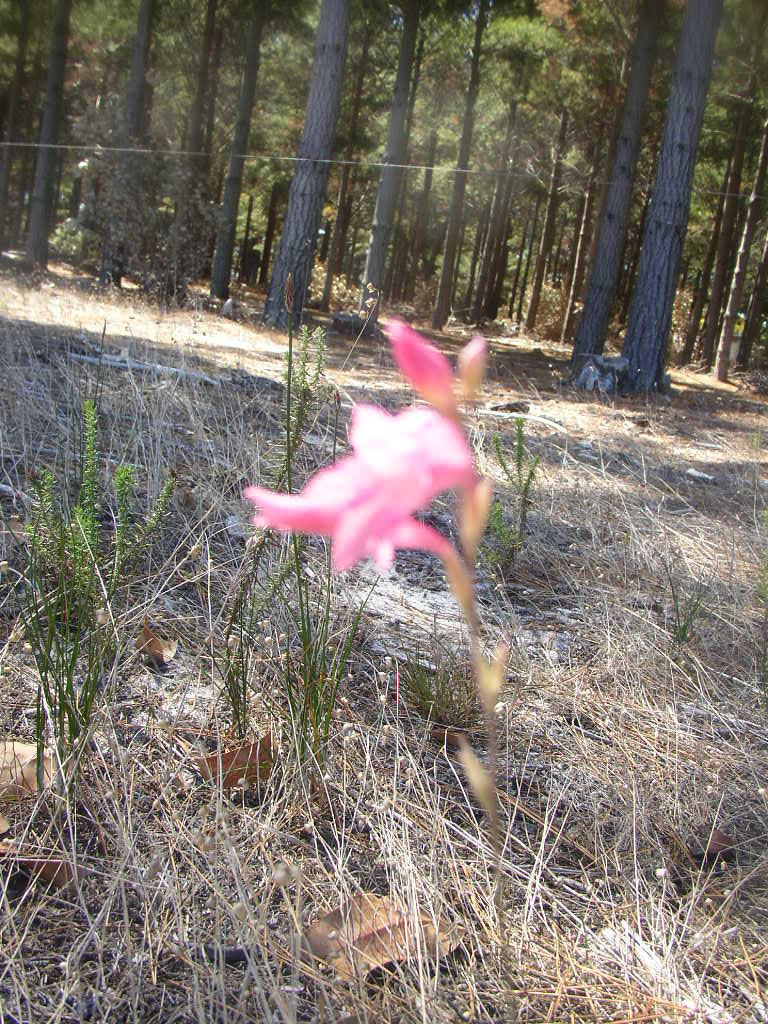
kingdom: Plantae
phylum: Tracheophyta
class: Liliopsida
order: Asparagales
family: Iridaceae
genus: Gladiolus
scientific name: Gladiolus brevifolius
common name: March pypie
